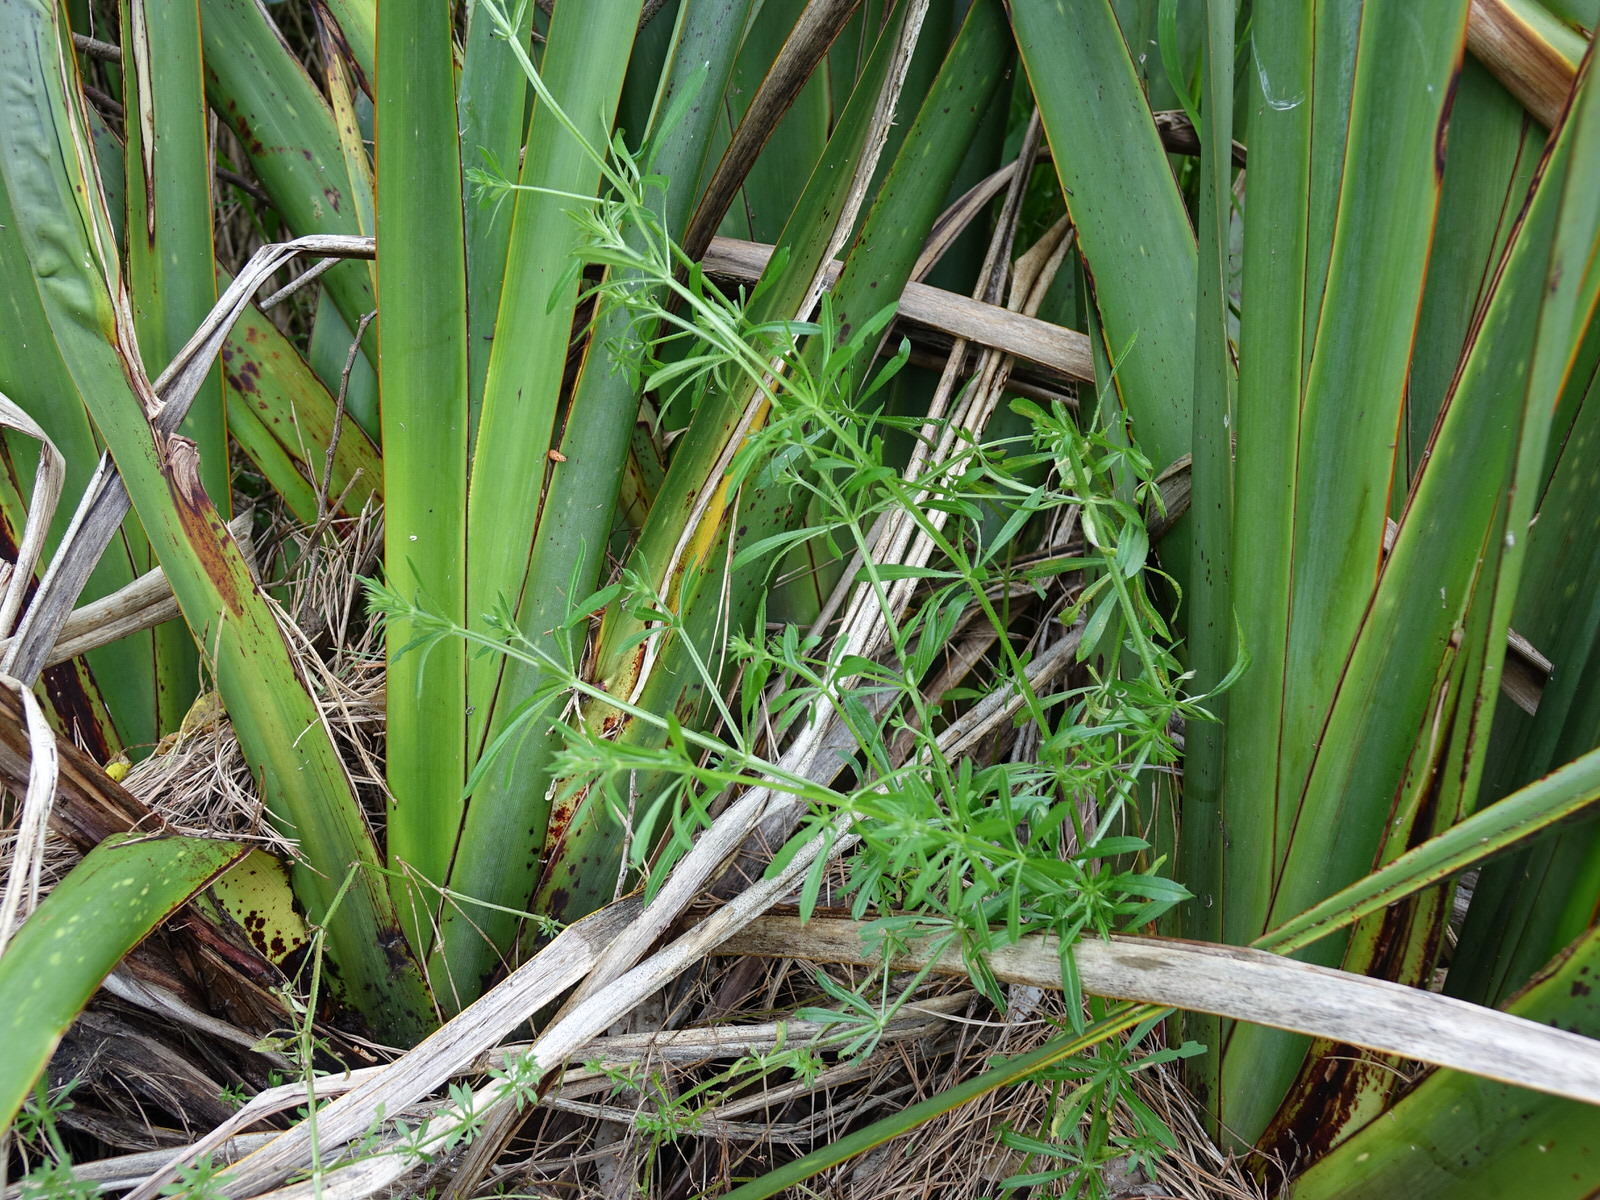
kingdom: Plantae
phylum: Tracheophyta
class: Magnoliopsida
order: Gentianales
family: Rubiaceae
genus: Galium
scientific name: Galium aparine
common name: Cleavers
